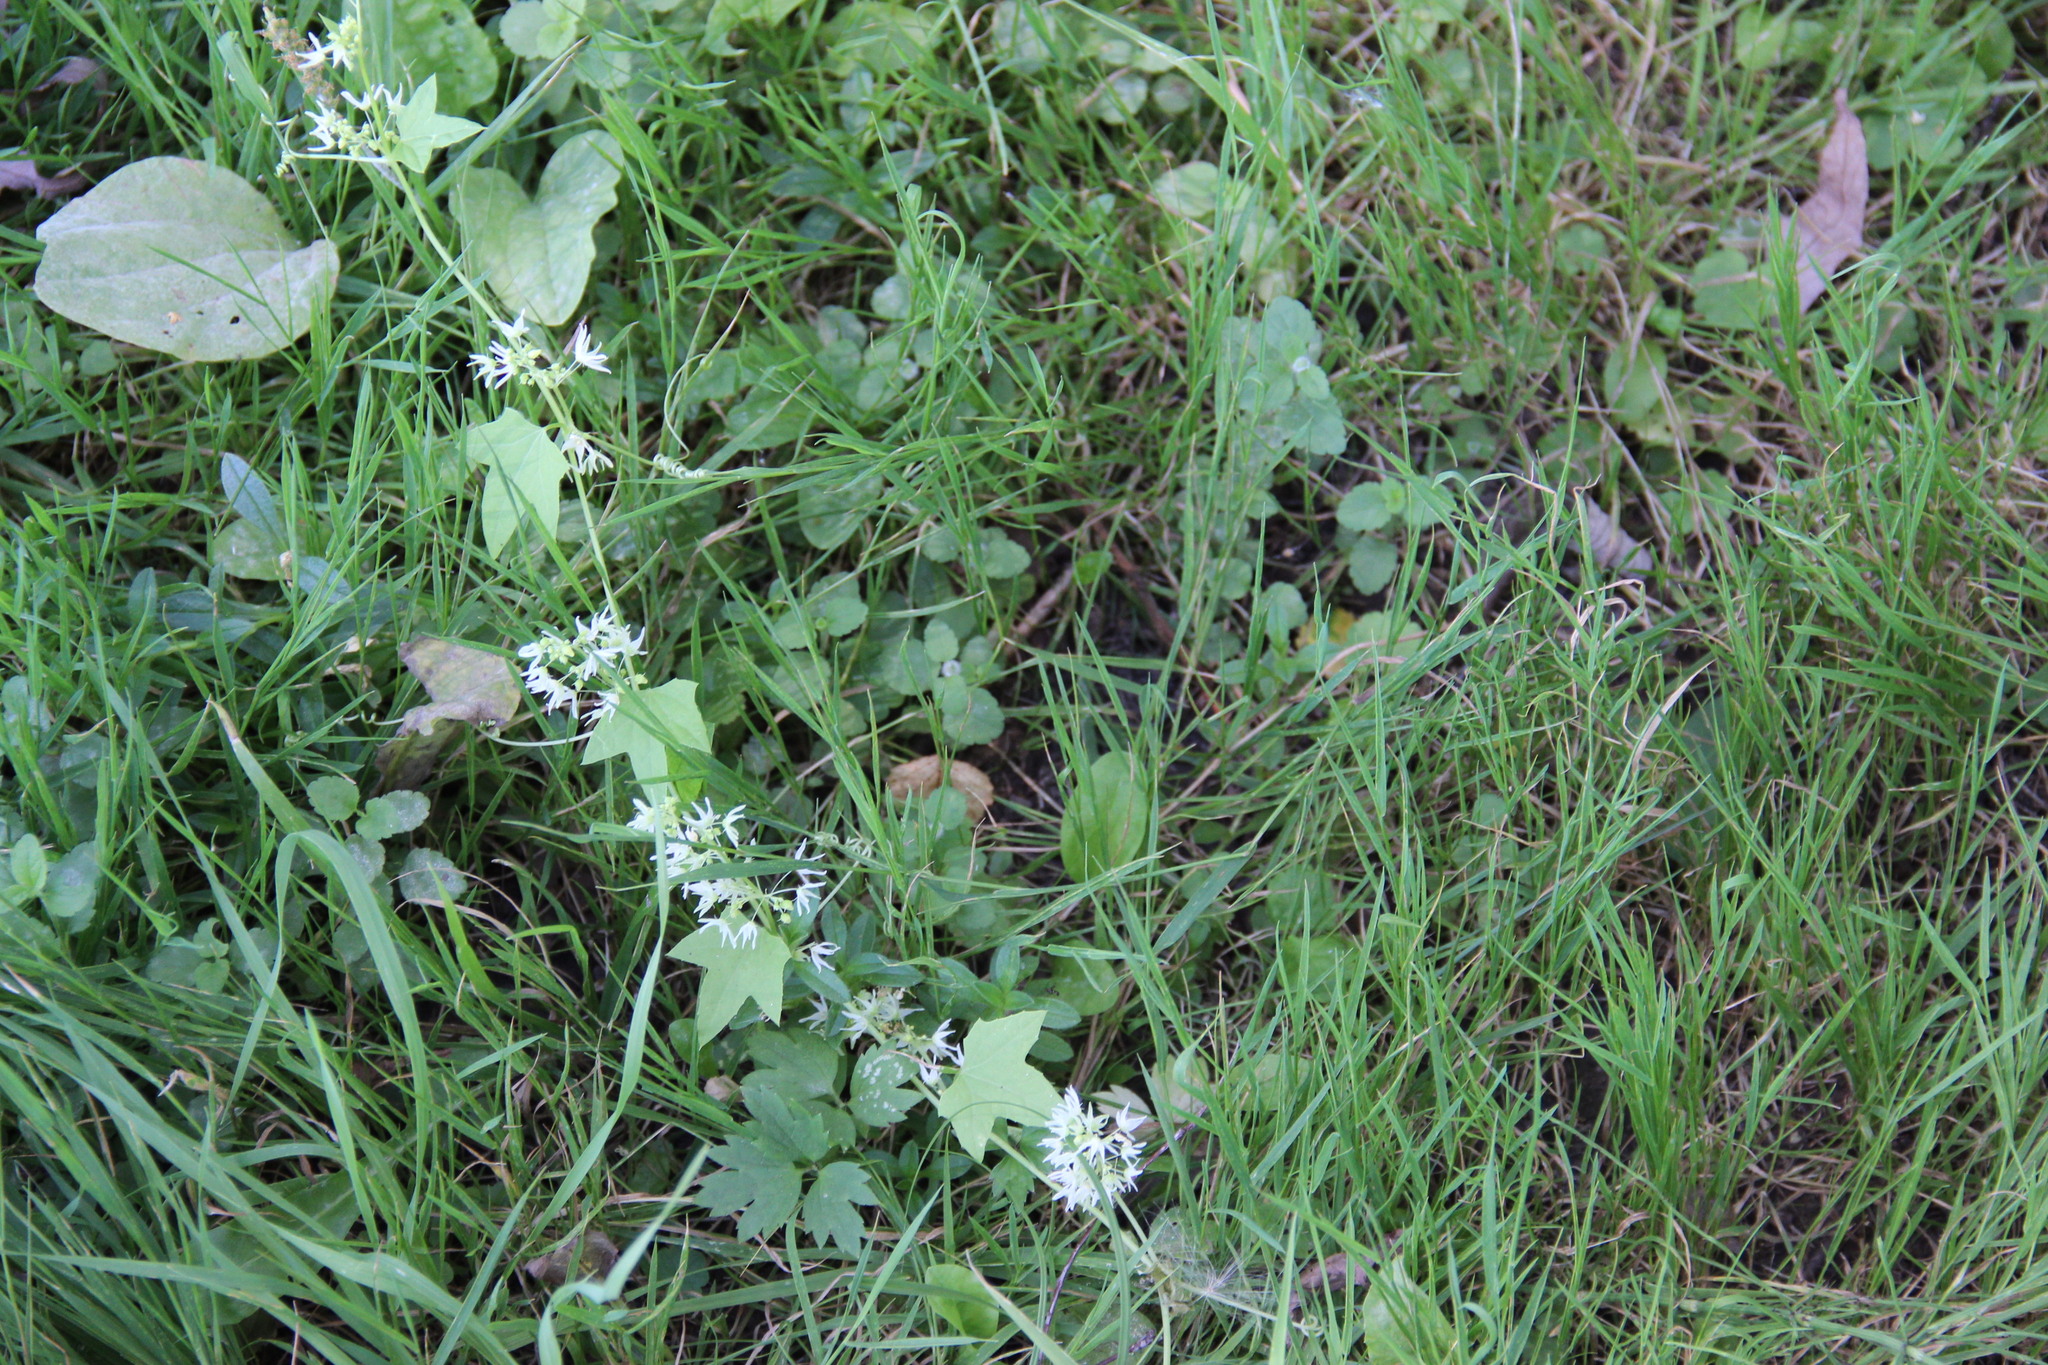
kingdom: Plantae
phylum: Tracheophyta
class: Magnoliopsida
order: Cucurbitales
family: Cucurbitaceae
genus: Echinocystis
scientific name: Echinocystis lobata
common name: Wild cucumber
